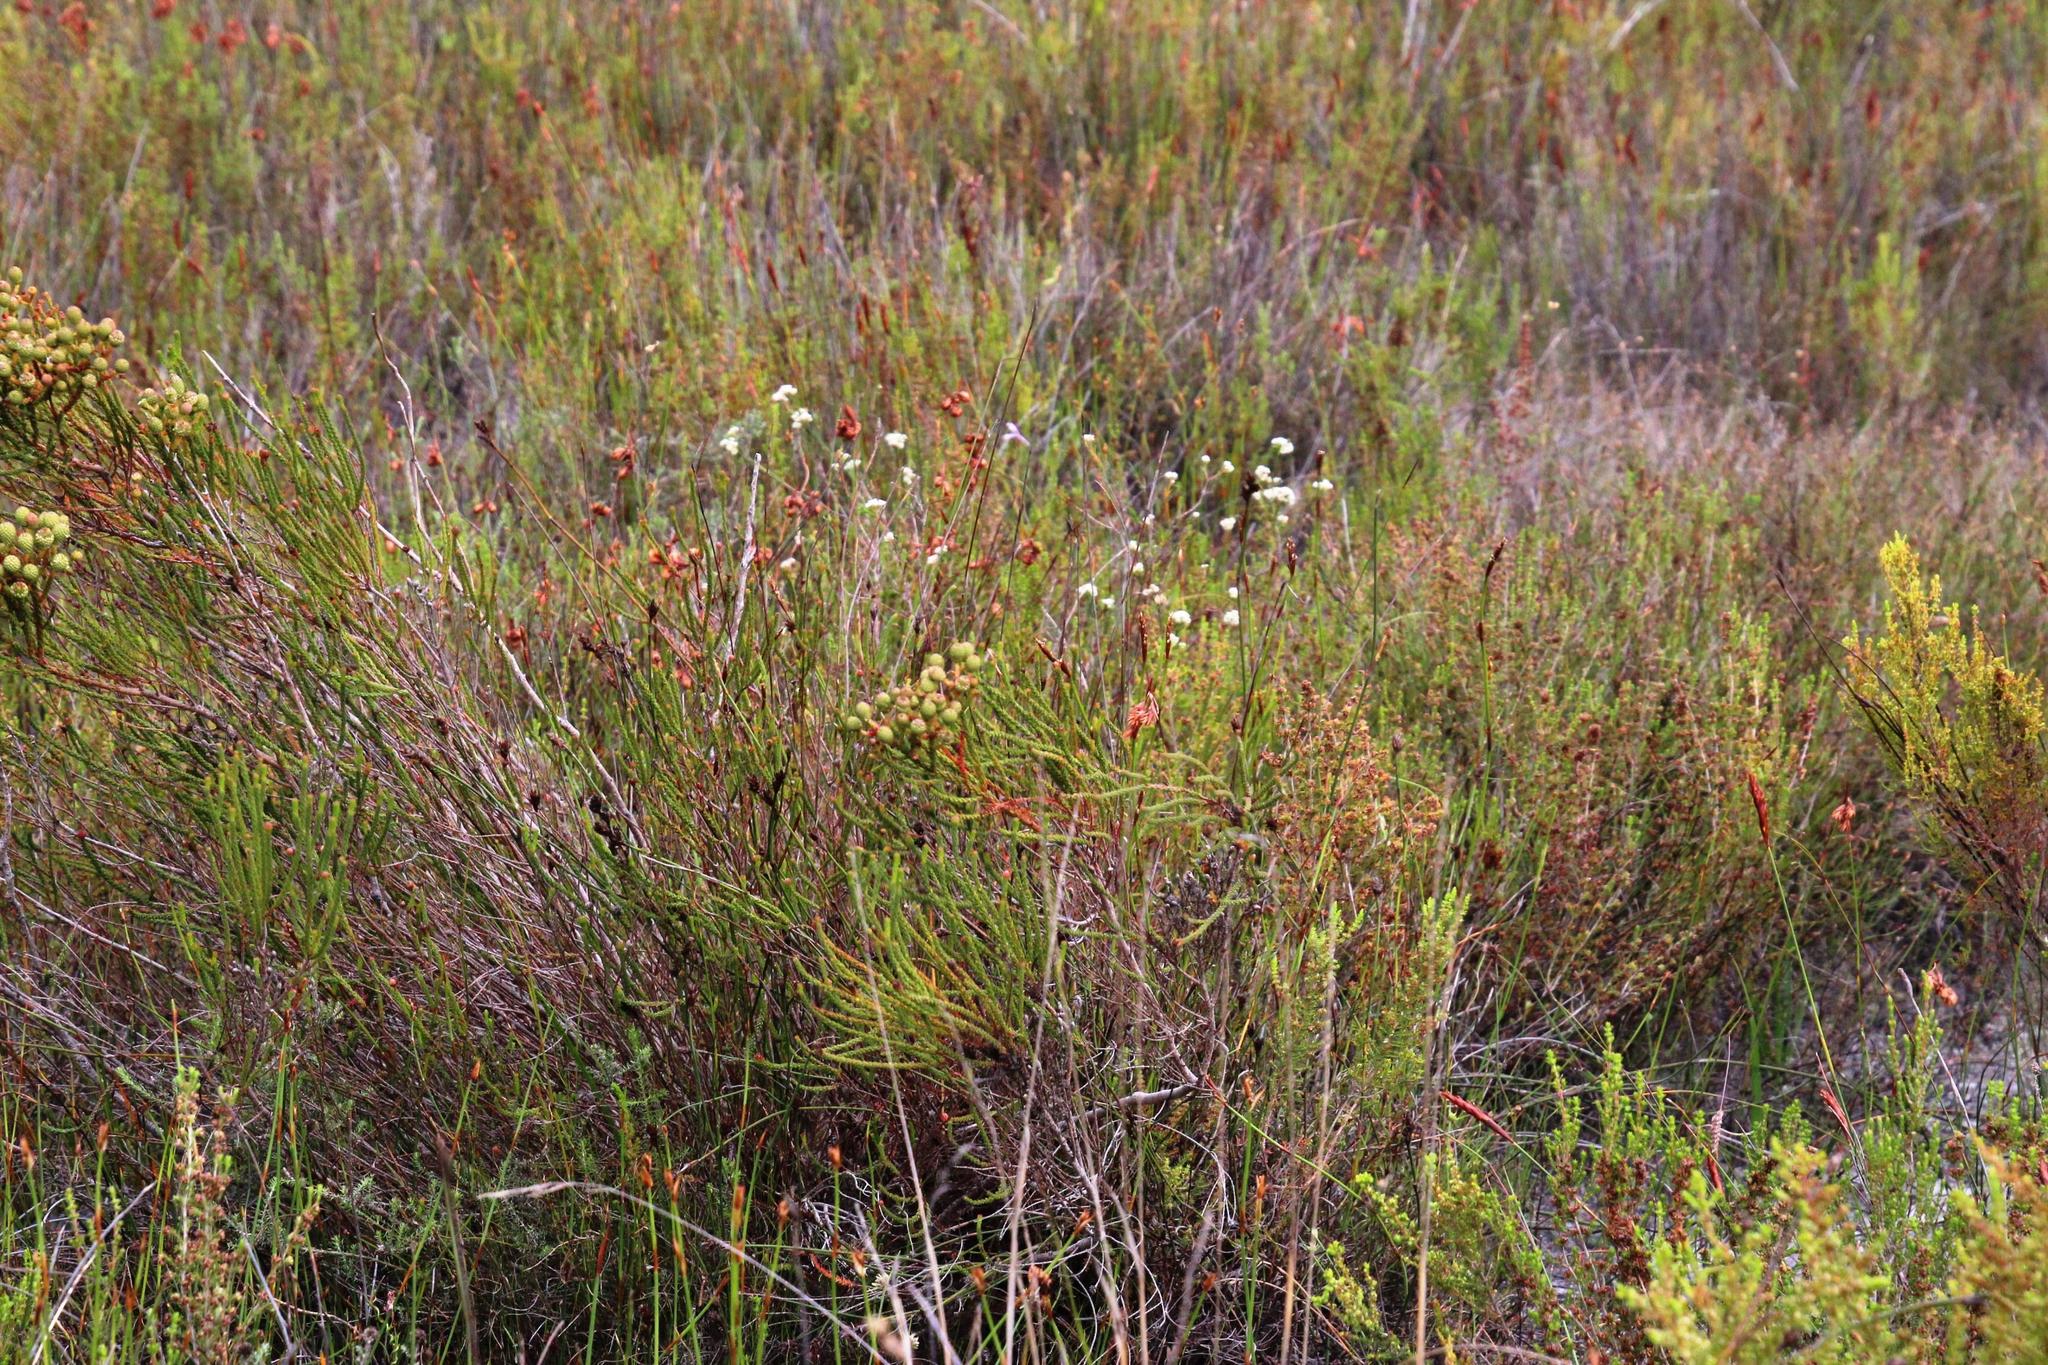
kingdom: Plantae
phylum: Tracheophyta
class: Magnoliopsida
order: Bruniales
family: Bruniaceae
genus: Berzelia
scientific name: Berzelia abrotanoides
